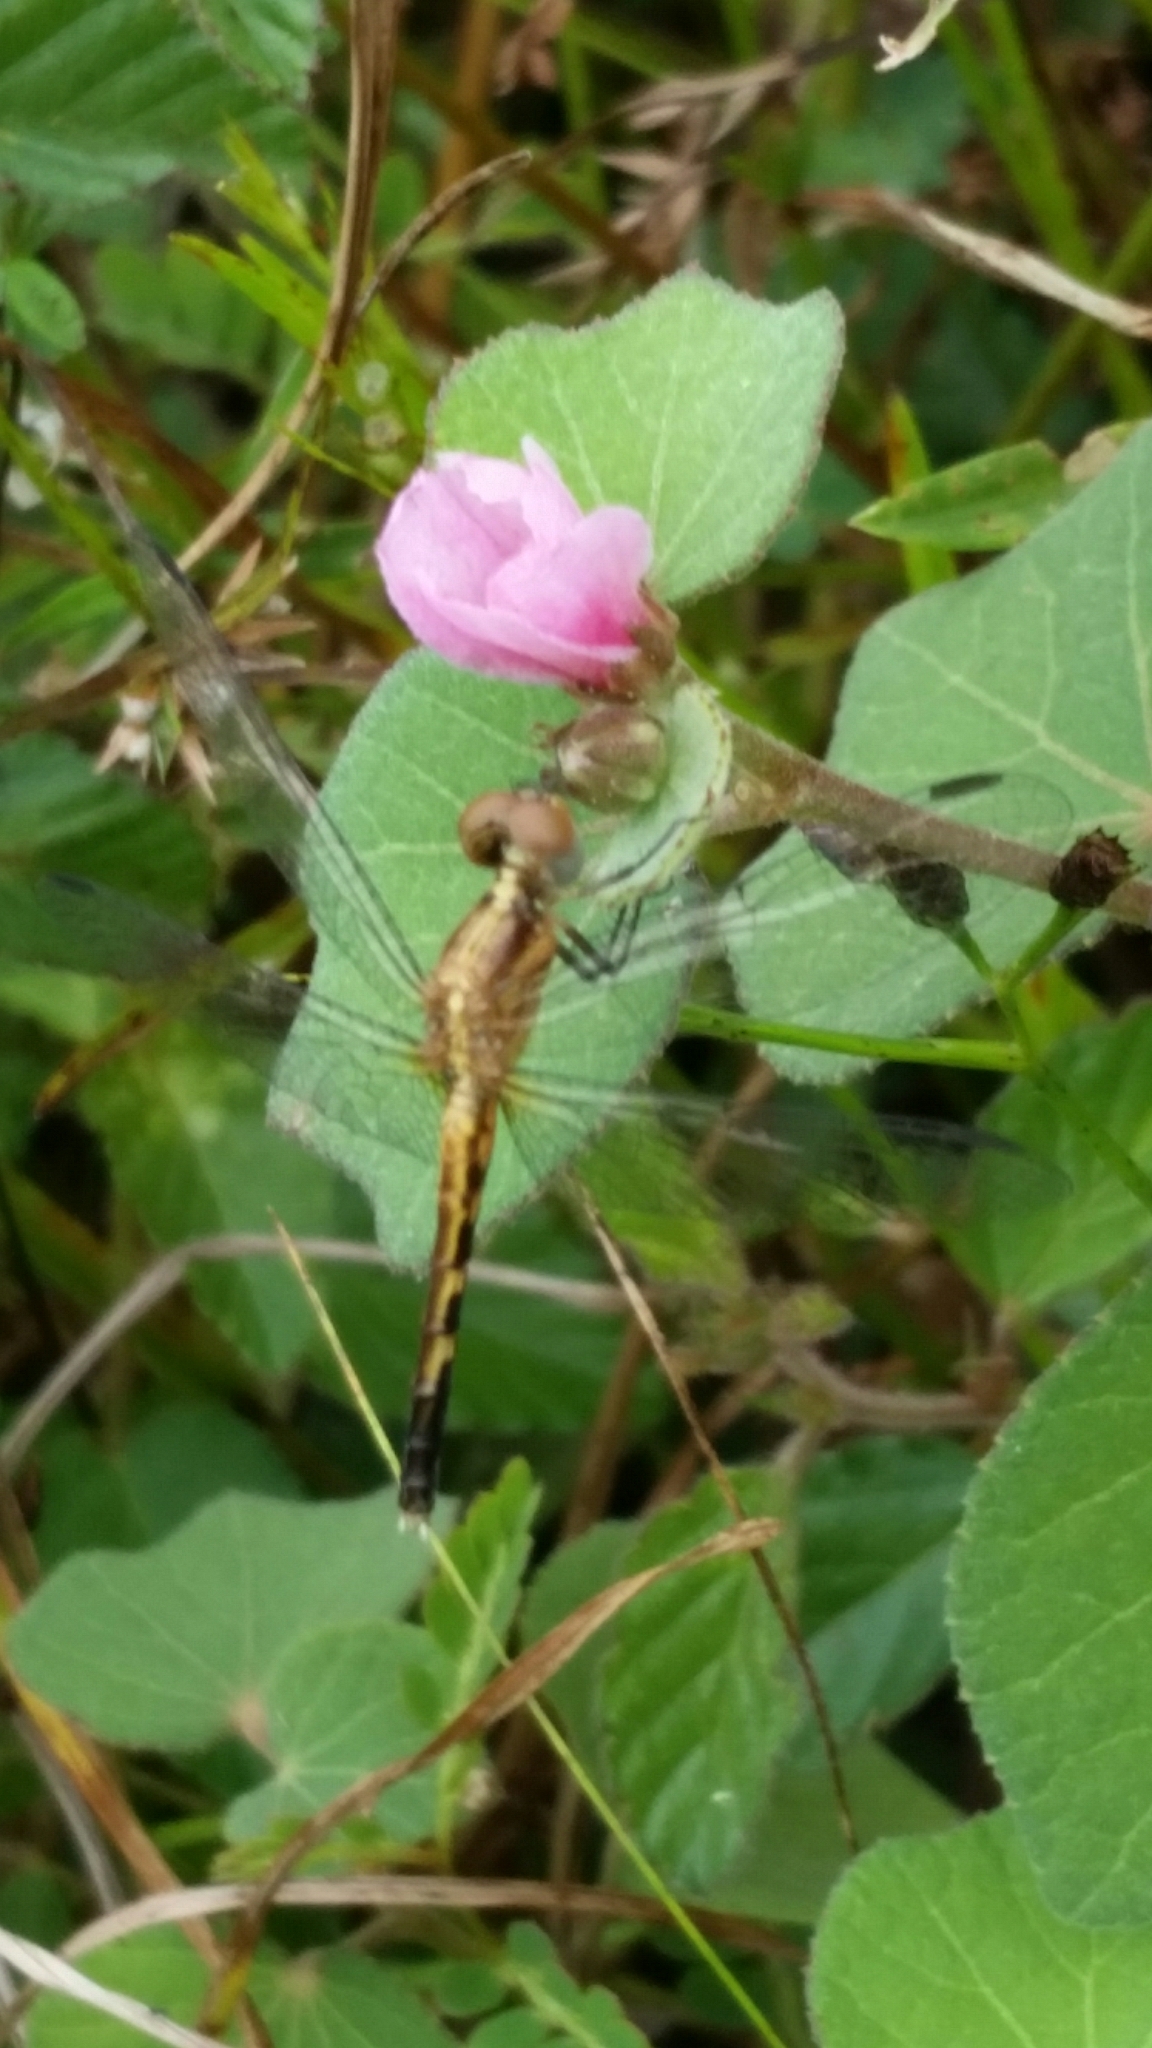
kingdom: Animalia
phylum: Arthropoda
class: Insecta
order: Odonata
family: Libellulidae
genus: Erythrodiplax
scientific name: Erythrodiplax minuscula
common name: Little blue dragonlet
